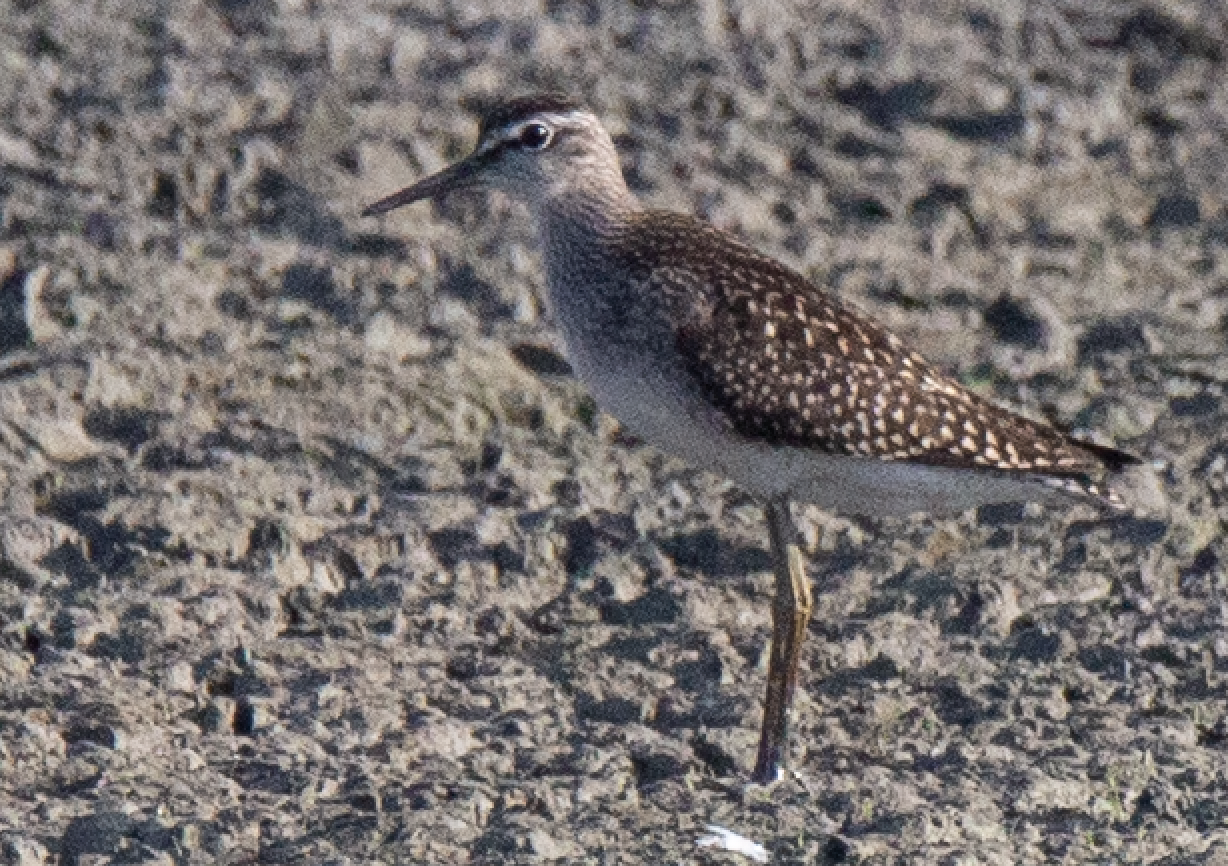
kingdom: Animalia
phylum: Chordata
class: Aves
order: Charadriiformes
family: Scolopacidae
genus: Tringa
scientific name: Tringa glareola
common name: Wood sandpiper
